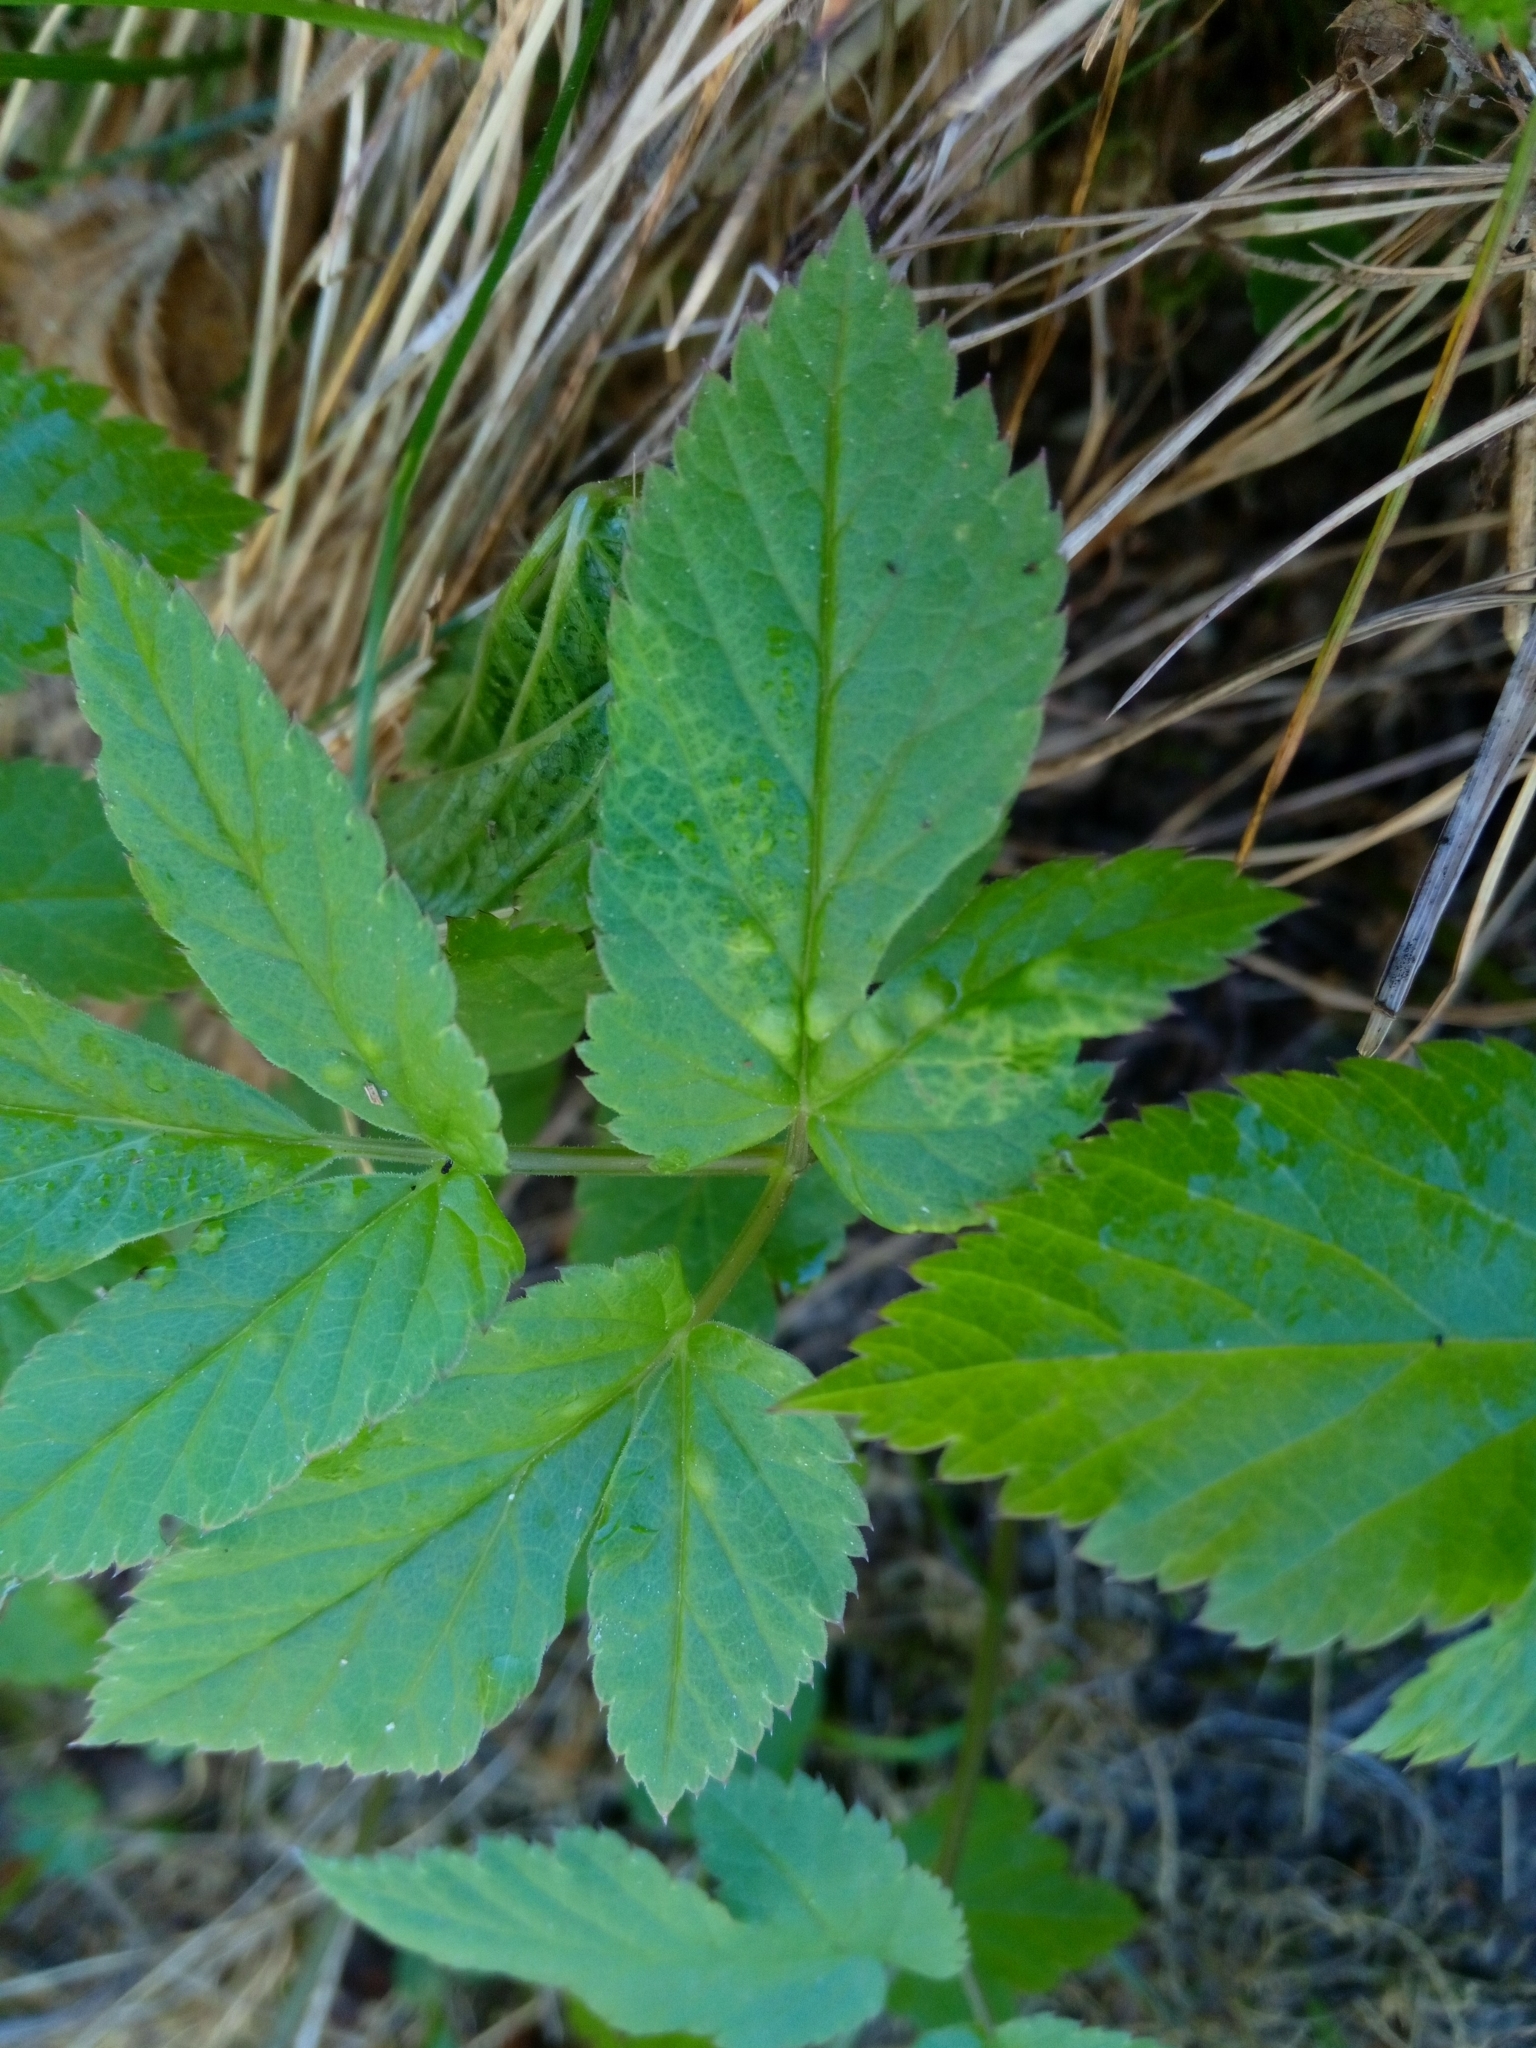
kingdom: Animalia
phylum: Arthropoda
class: Insecta
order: Hemiptera
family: Triozidae
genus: Trioza
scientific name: Trioza flavipennis
